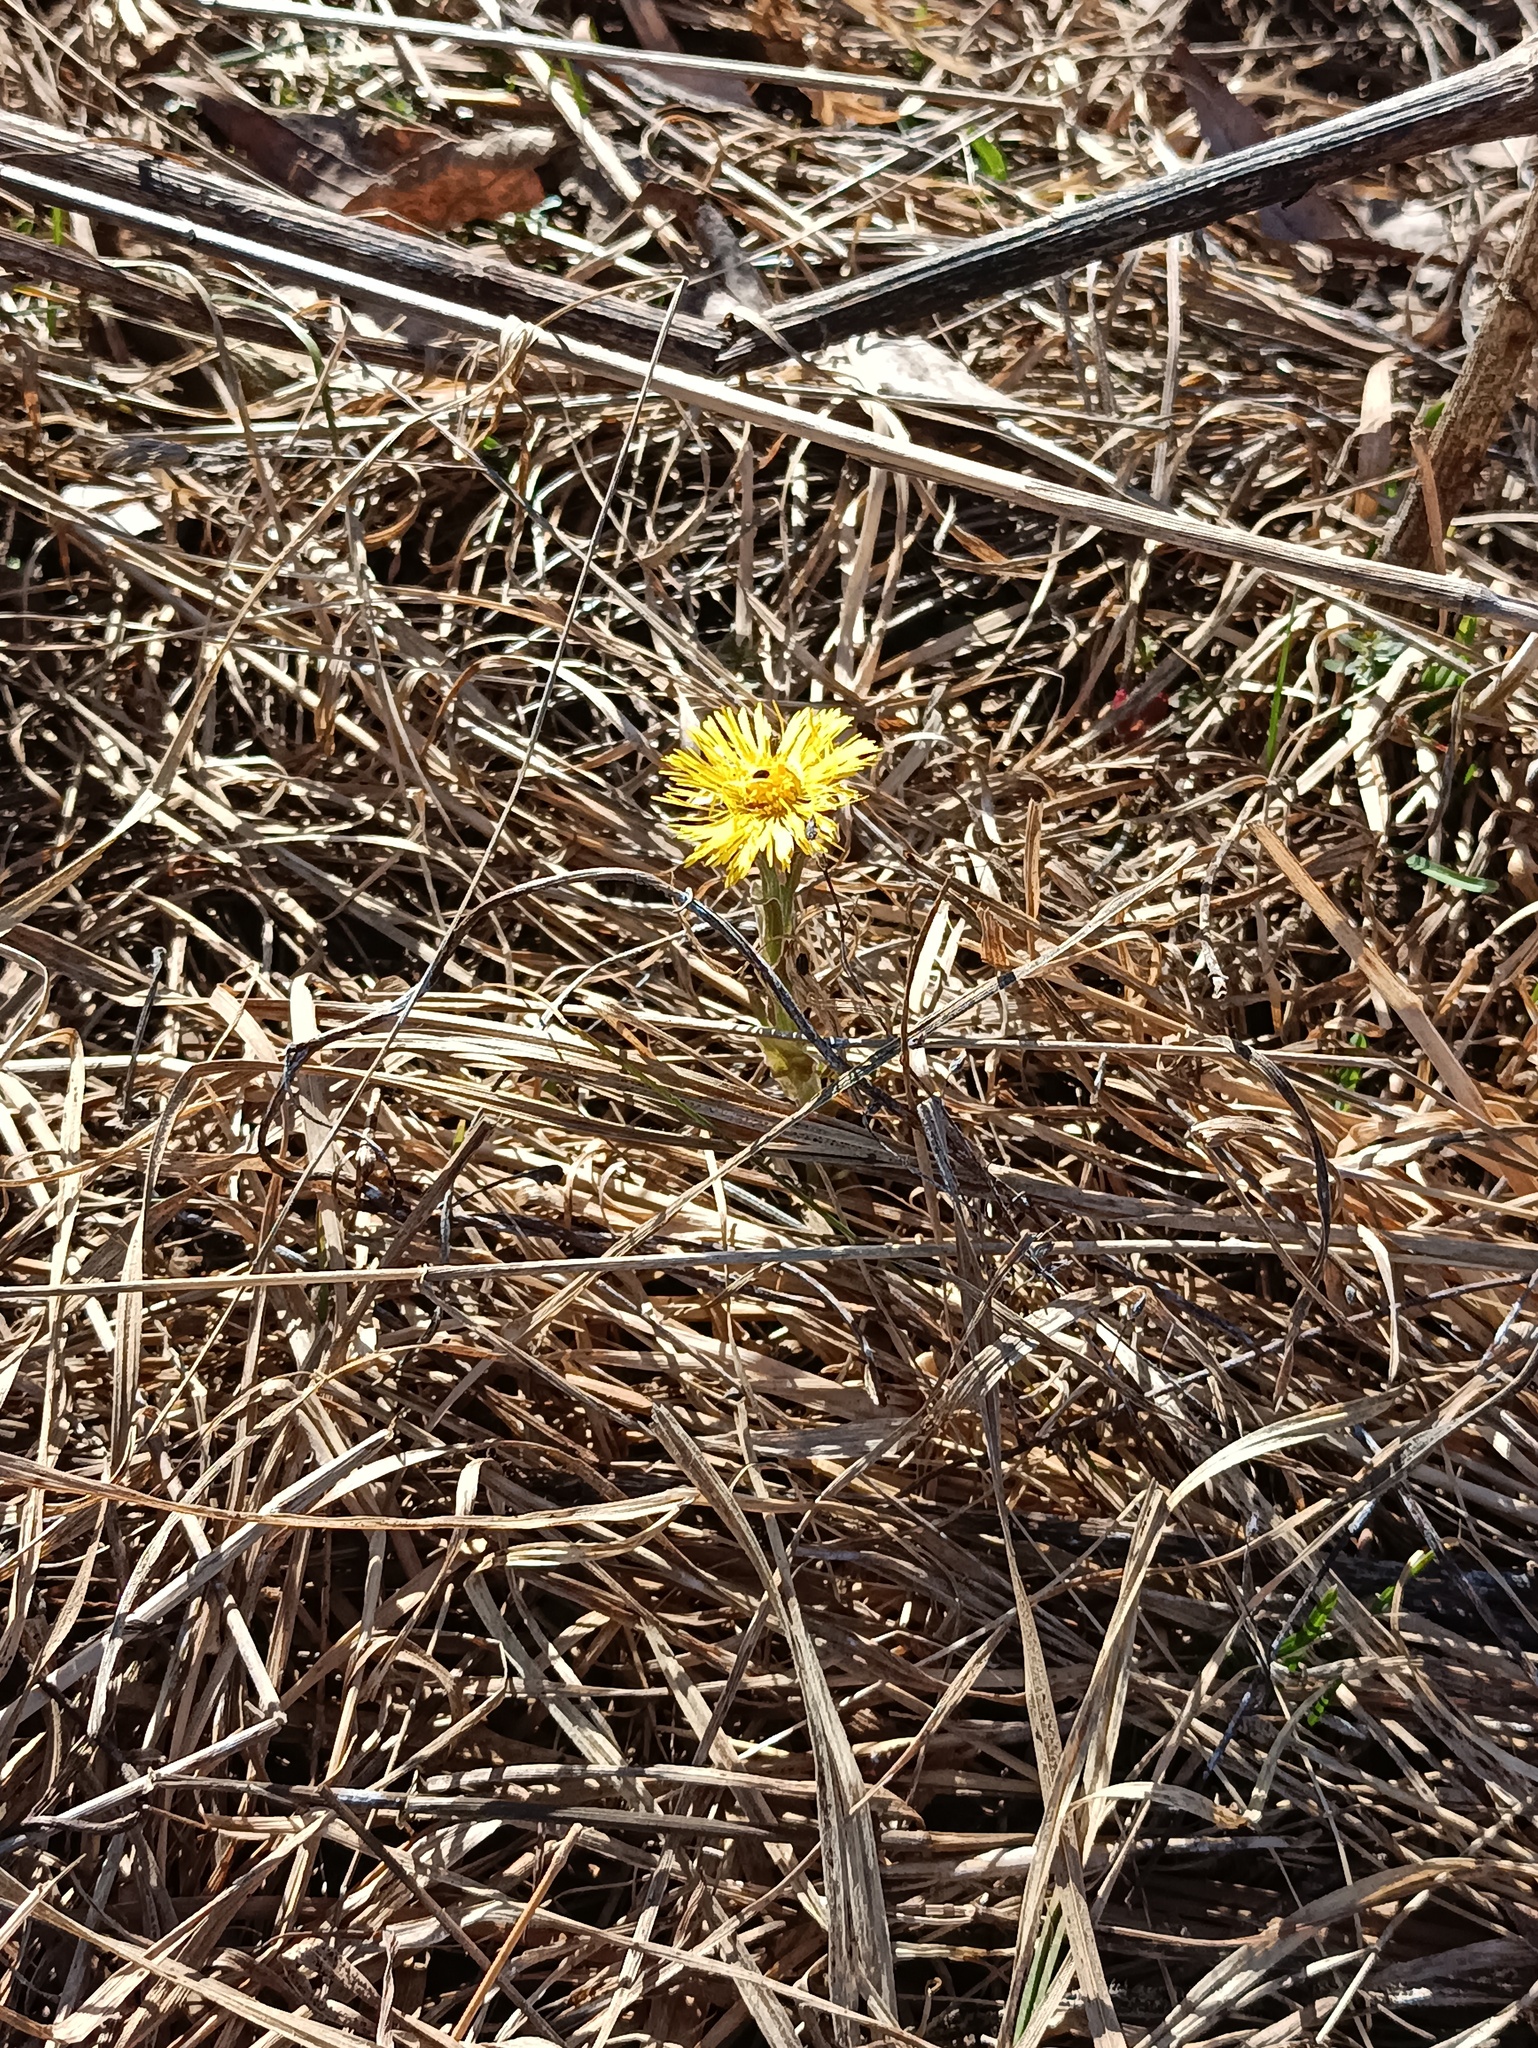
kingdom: Plantae
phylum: Tracheophyta
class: Magnoliopsida
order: Asterales
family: Asteraceae
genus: Tussilago
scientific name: Tussilago farfara
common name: Coltsfoot
